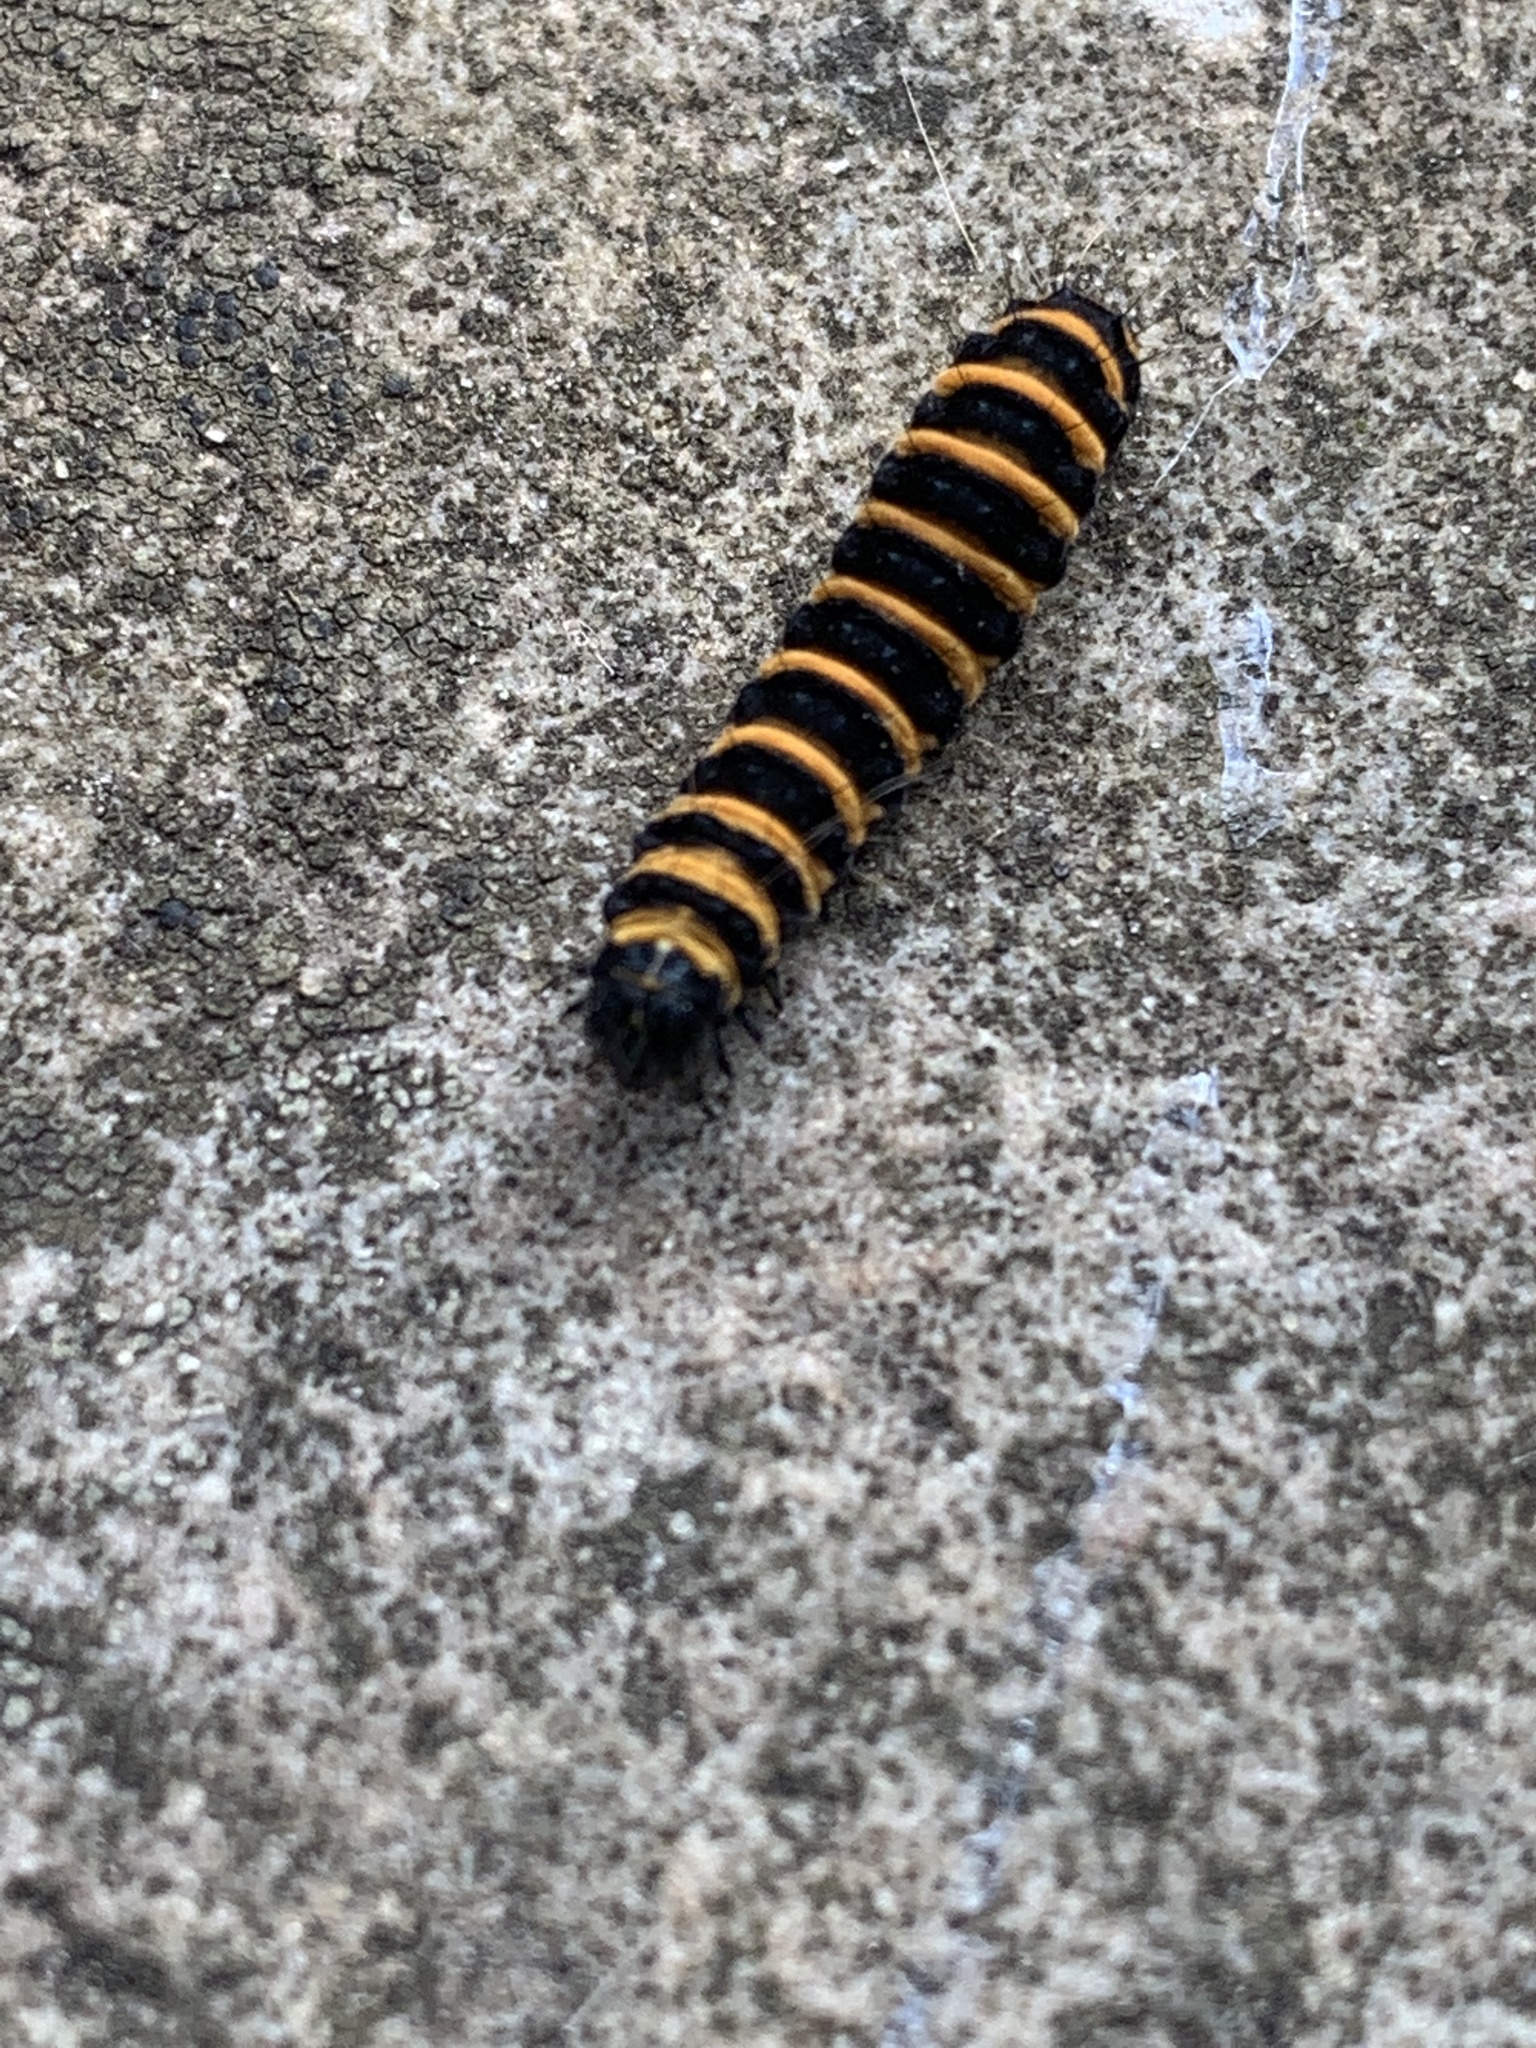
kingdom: Animalia
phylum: Arthropoda
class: Insecta
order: Lepidoptera
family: Erebidae
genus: Tyria
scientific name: Tyria jacobaeae
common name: Cinnabar
